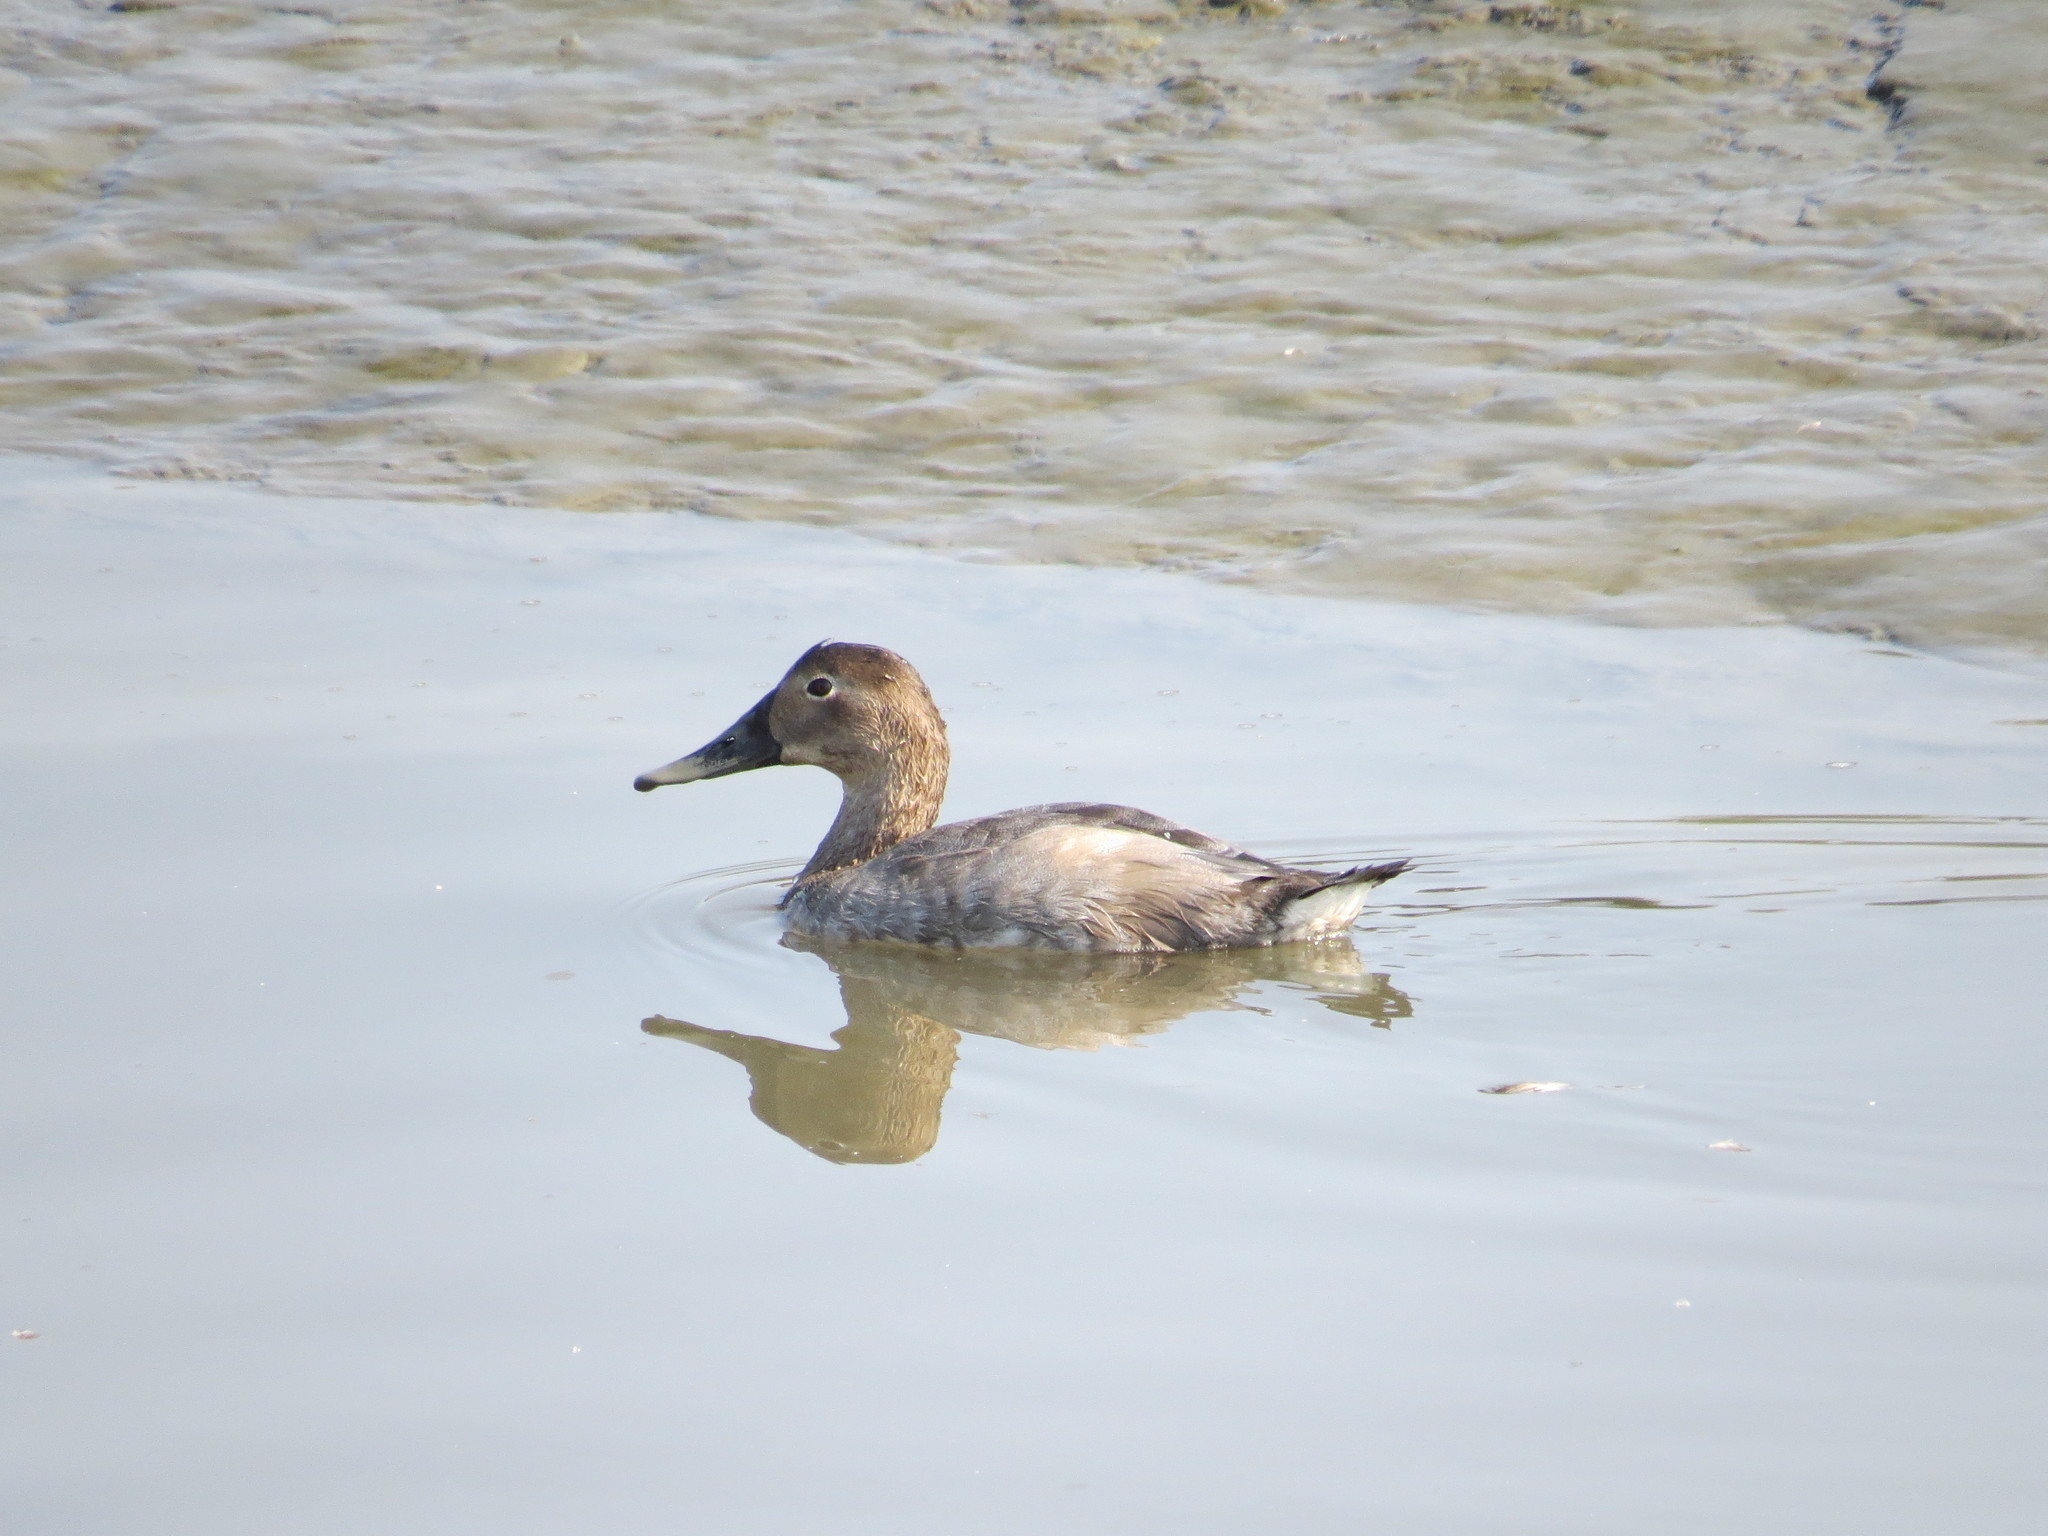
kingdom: Animalia
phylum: Chordata
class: Aves
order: Anseriformes
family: Anatidae
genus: Aythya
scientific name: Aythya valisineria
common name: Canvasback
